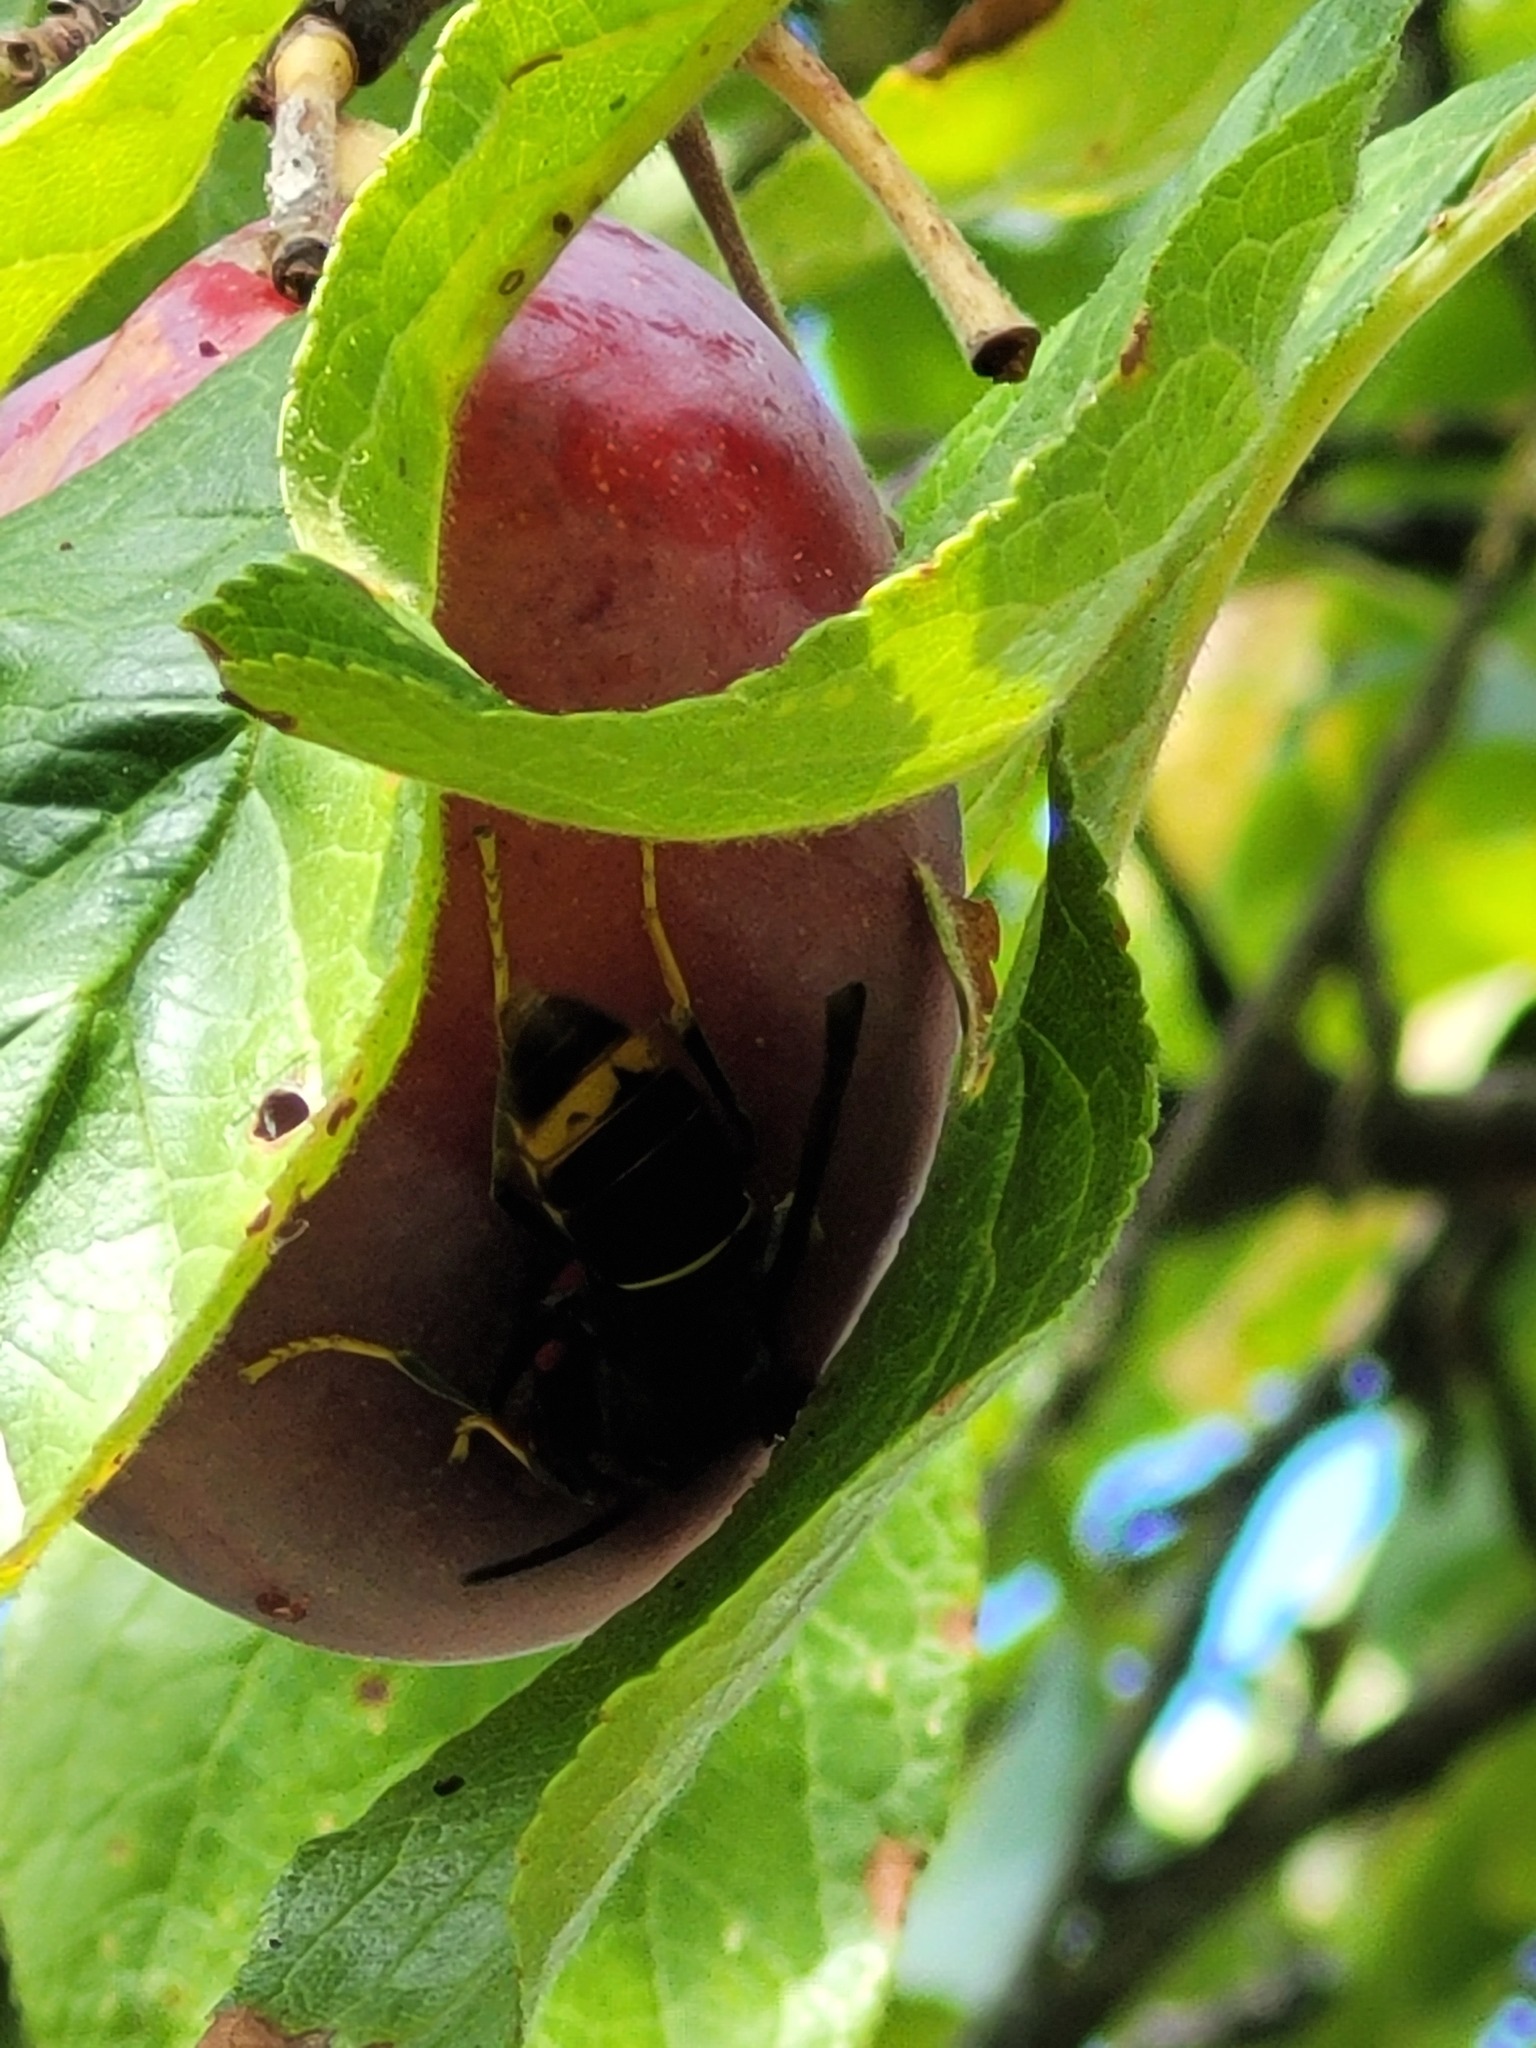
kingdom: Animalia
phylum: Arthropoda
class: Insecta
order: Hymenoptera
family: Vespidae
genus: Vespa
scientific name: Vespa velutina
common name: Asian hornet
